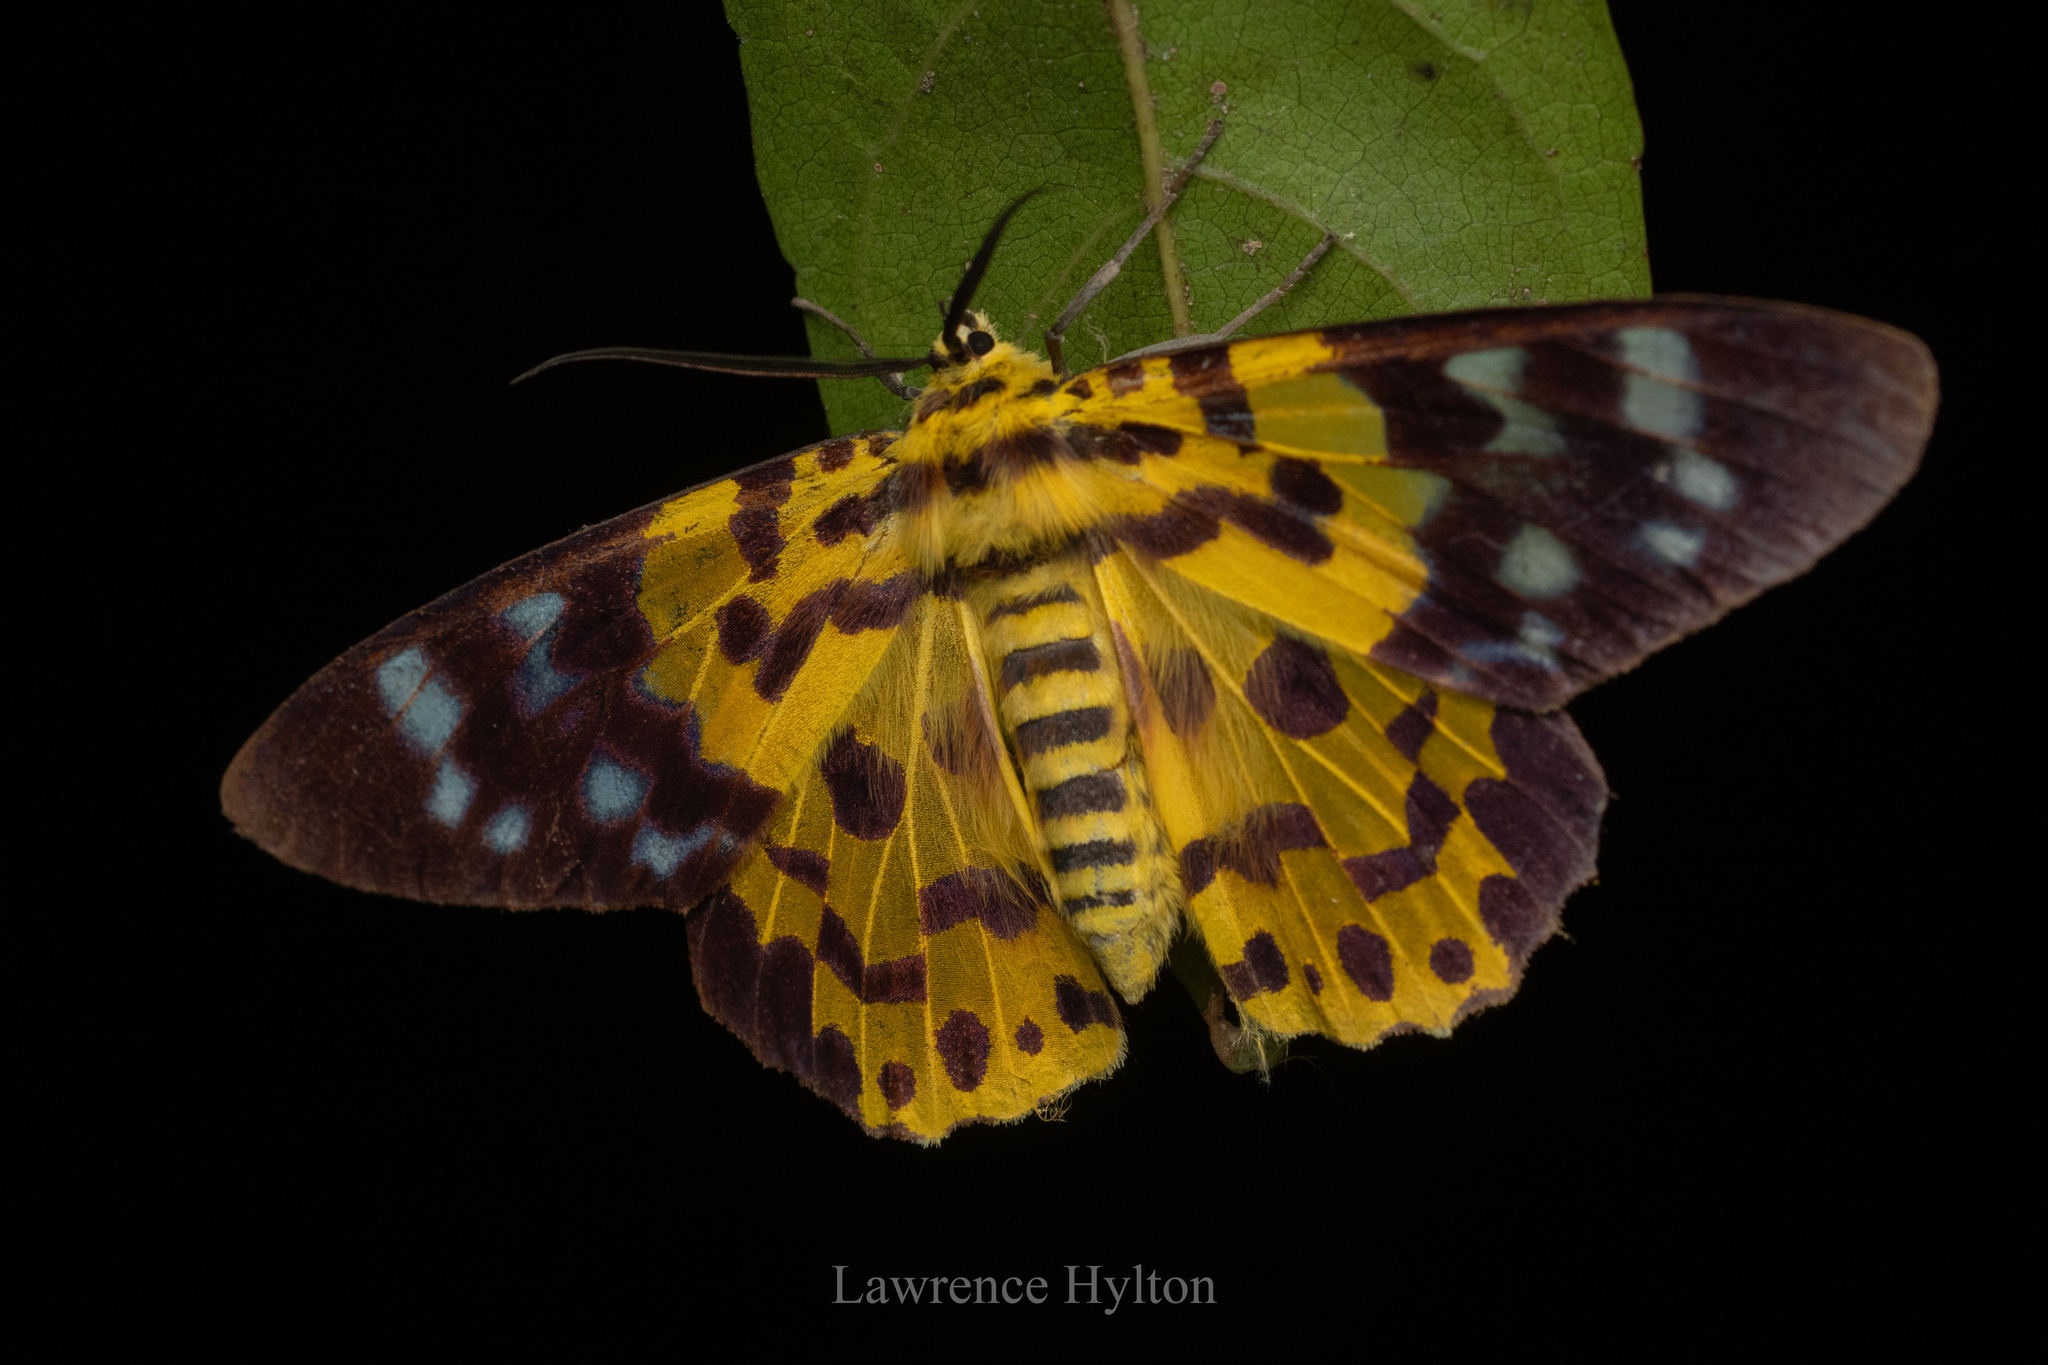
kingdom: Animalia
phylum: Arthropoda
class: Insecta
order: Lepidoptera
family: Geometridae
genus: Dysphania
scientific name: Dysphania militaris
